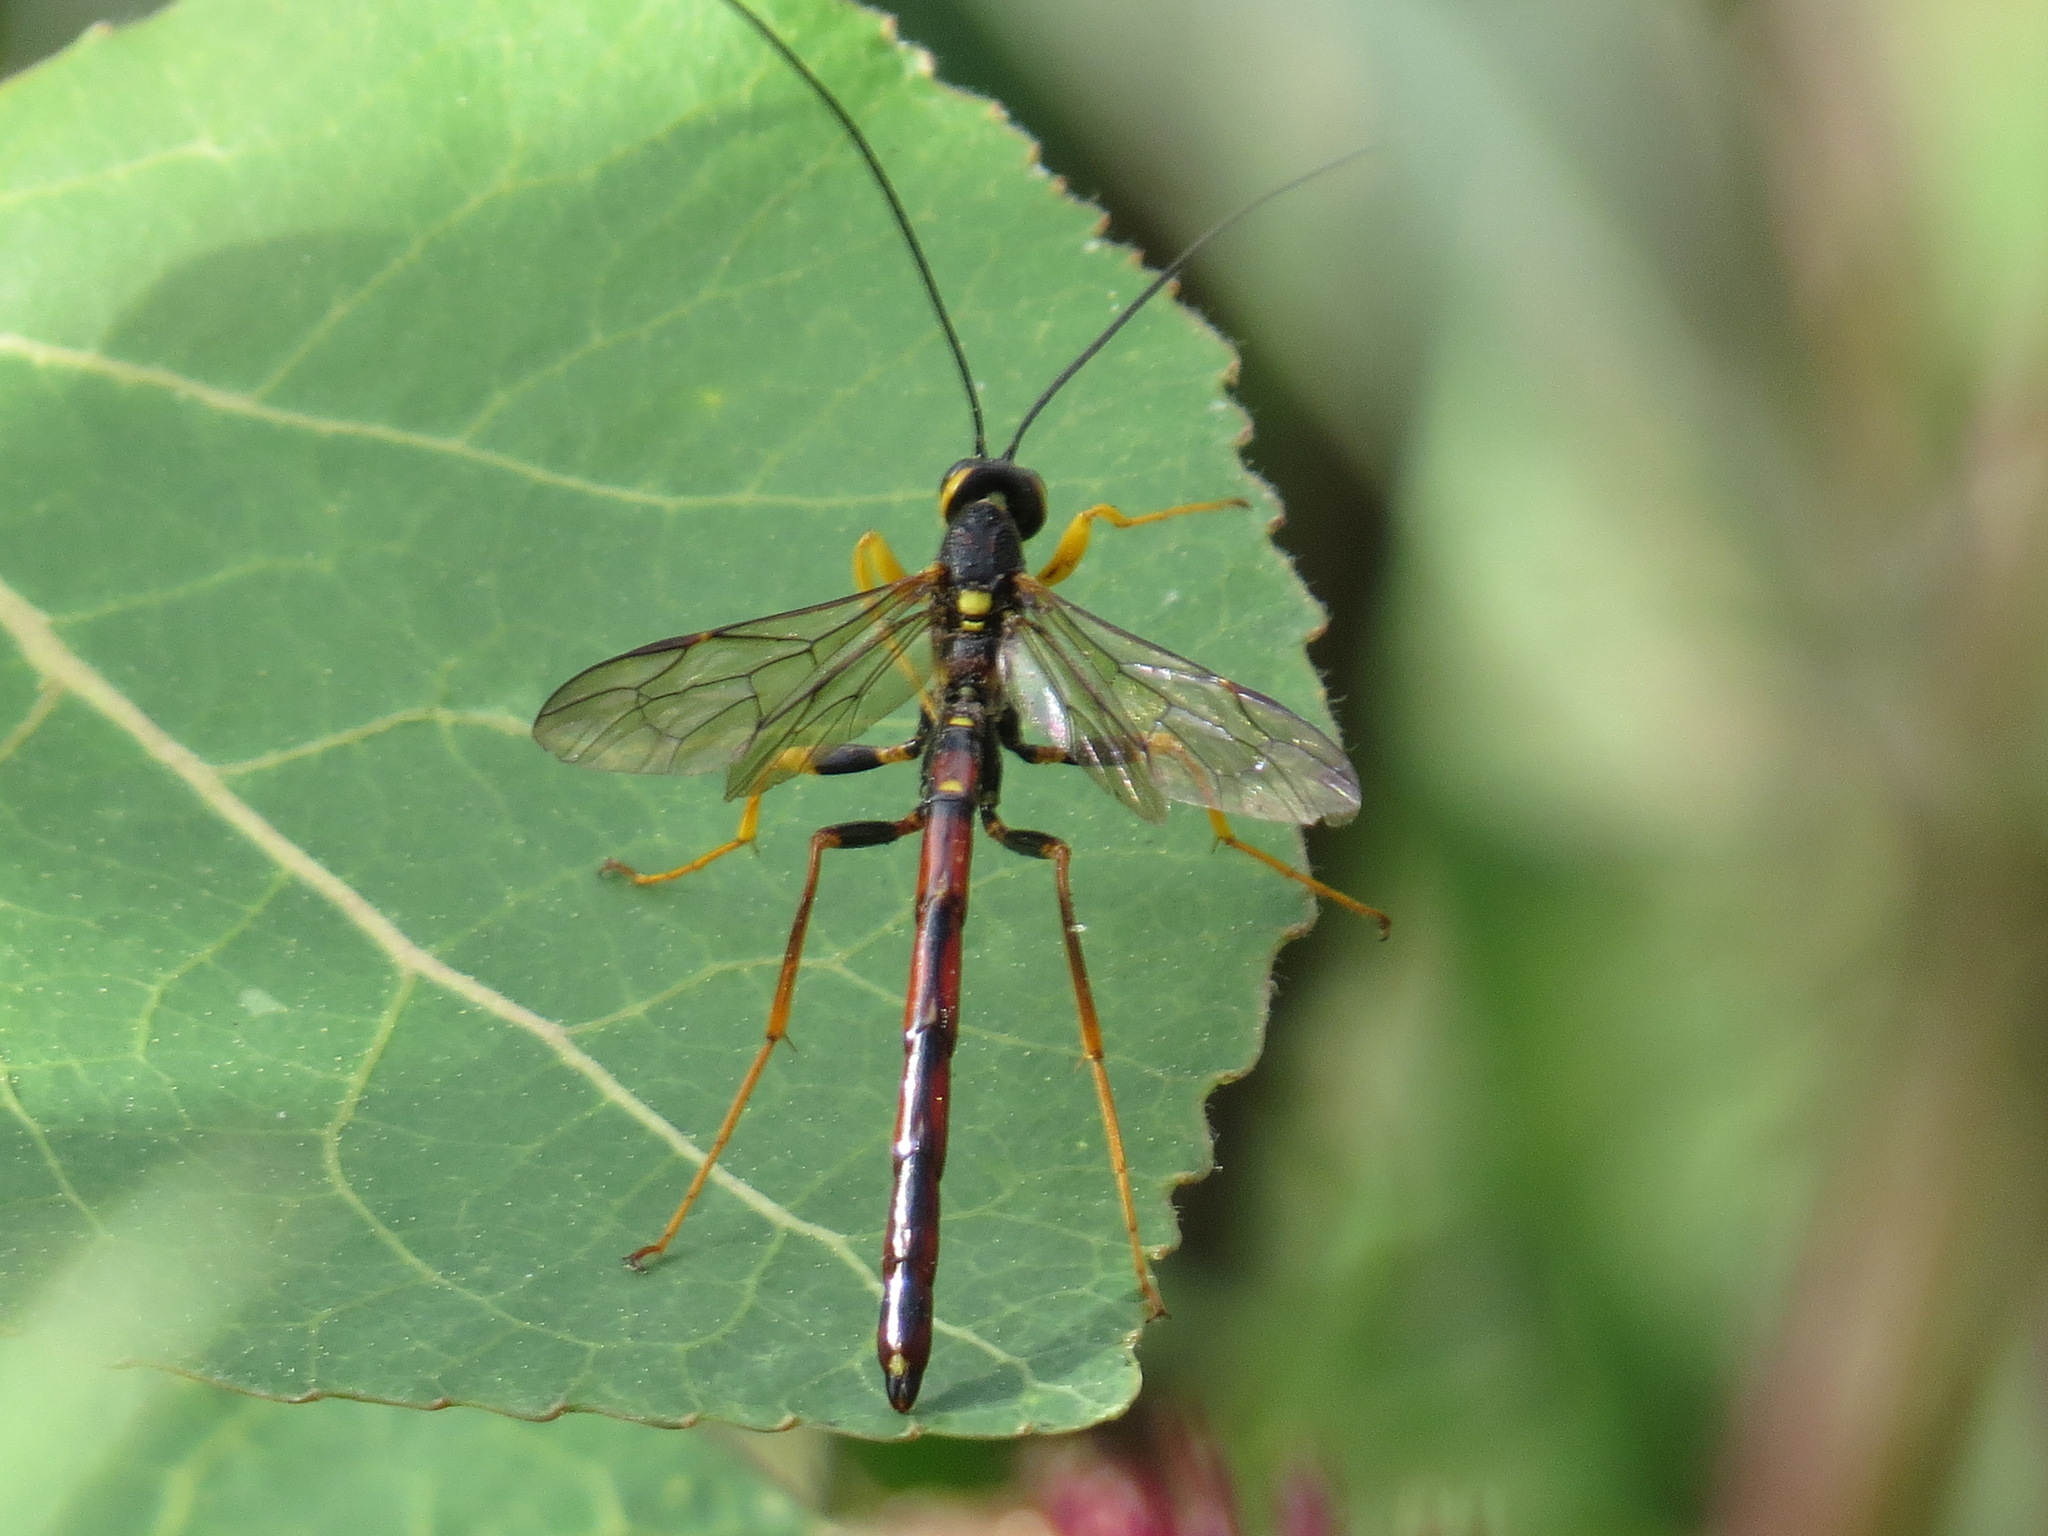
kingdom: Animalia
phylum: Arthropoda
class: Insecta
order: Hymenoptera
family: Ichneumonidae
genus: Megarhyssa
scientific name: Megarhyssa nortoni
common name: Norton's giant ichneumonid wasp
